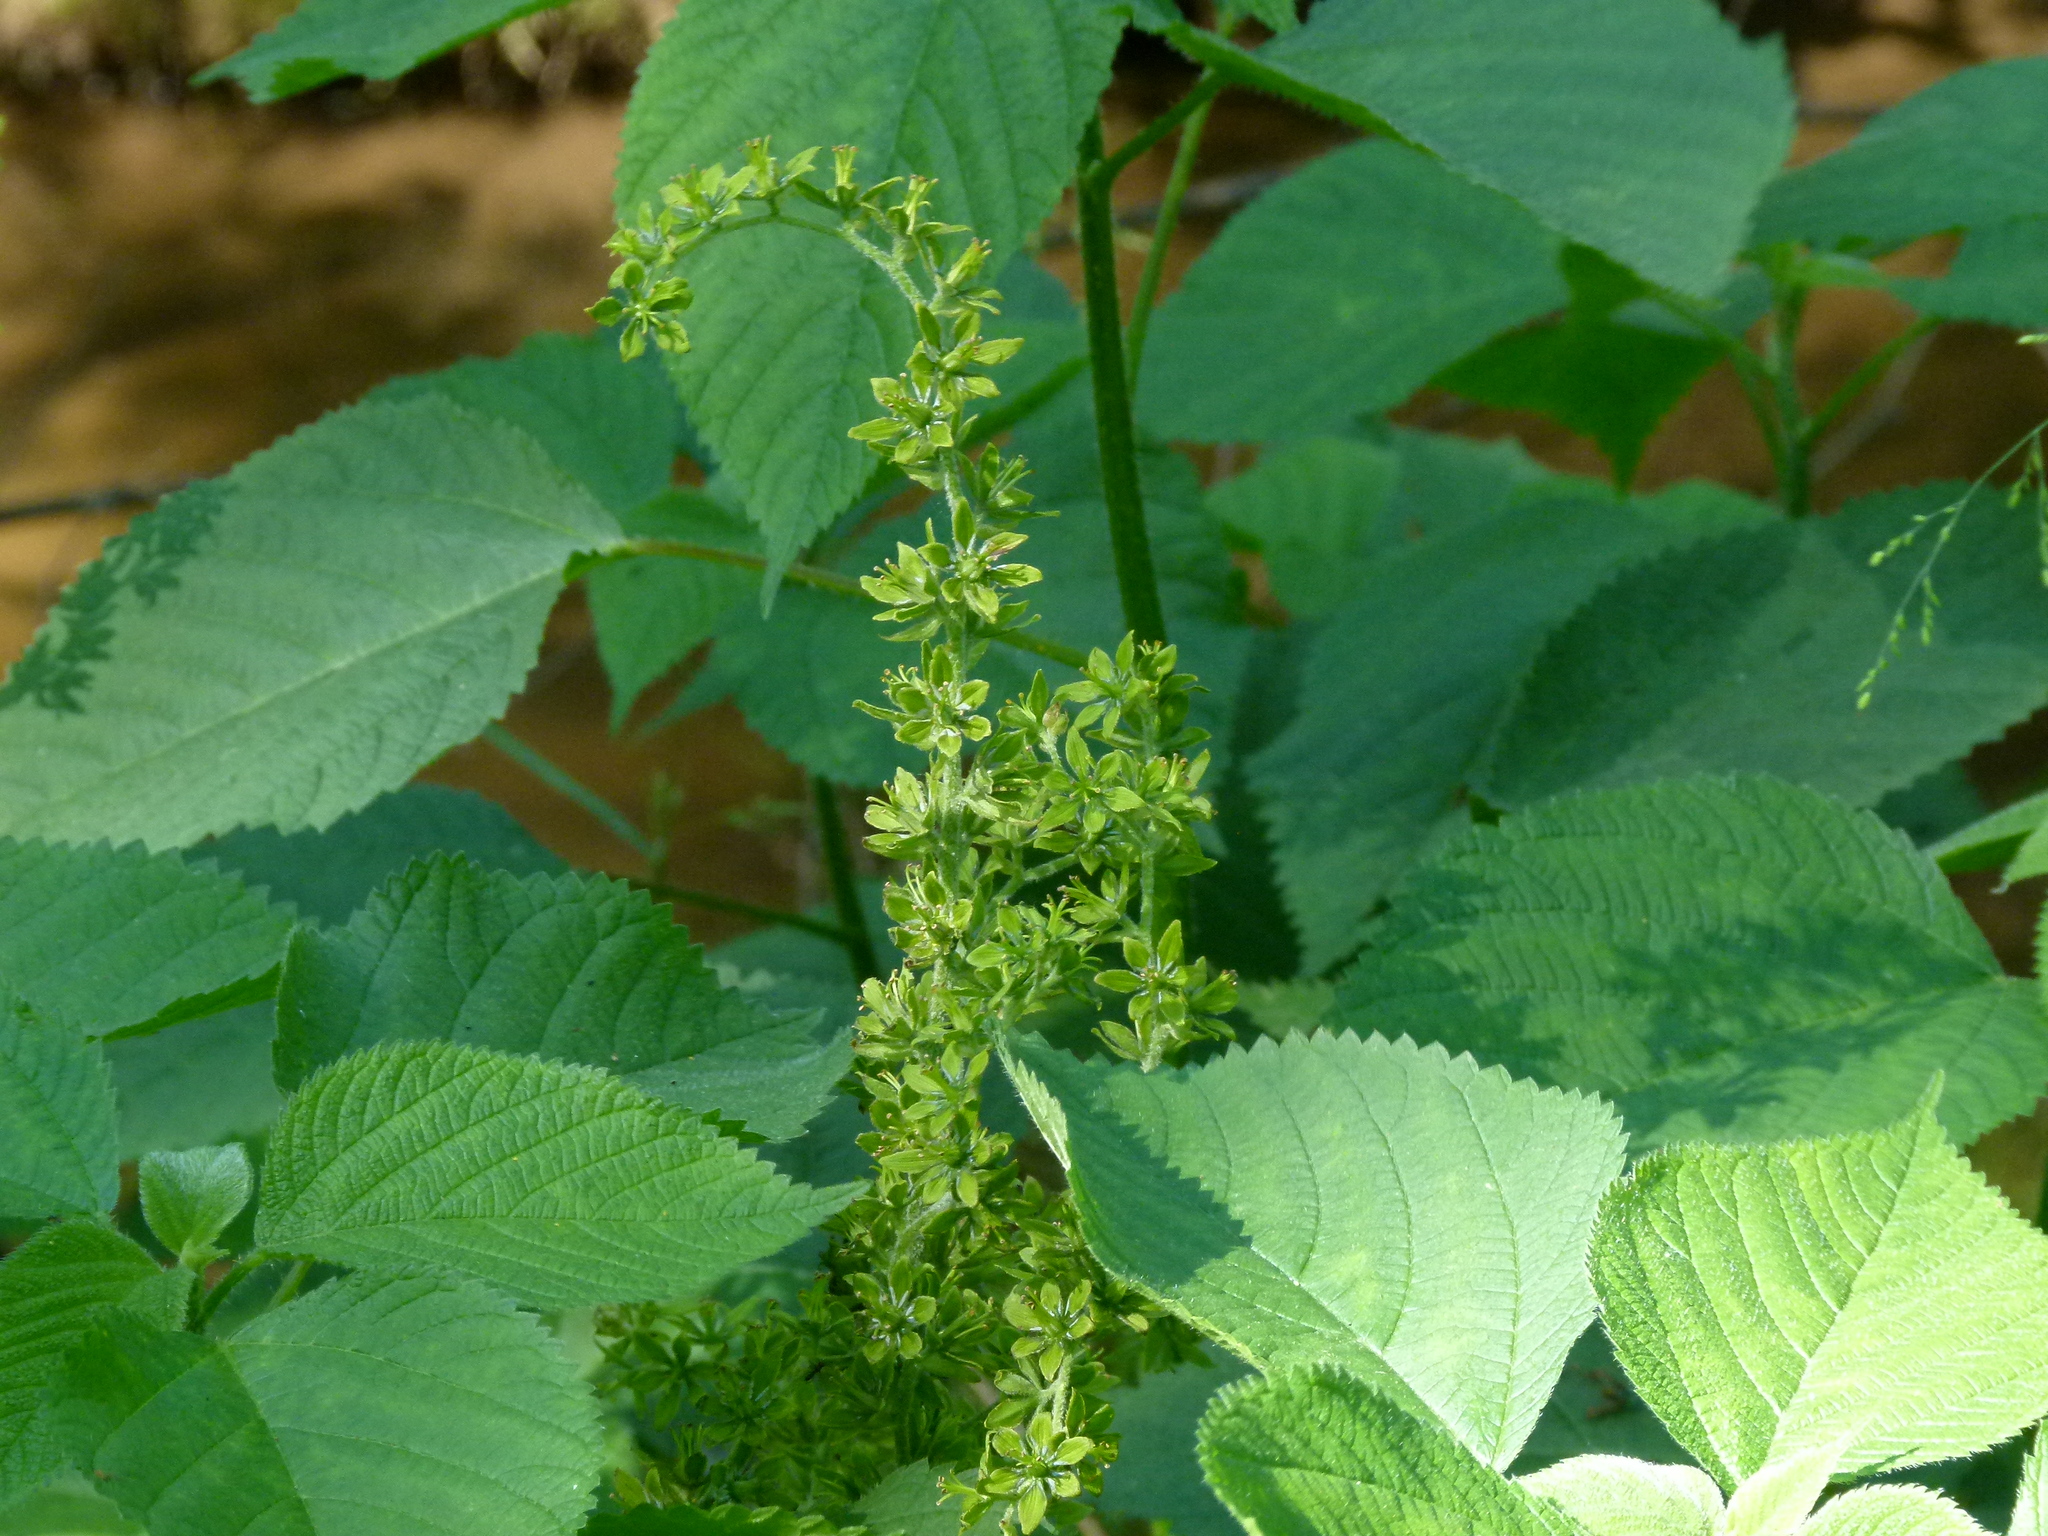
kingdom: Plantae
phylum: Tracheophyta
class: Liliopsida
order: Liliales
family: Melanthiaceae
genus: Veratrum
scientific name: Veratrum viride
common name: American false hellebore
